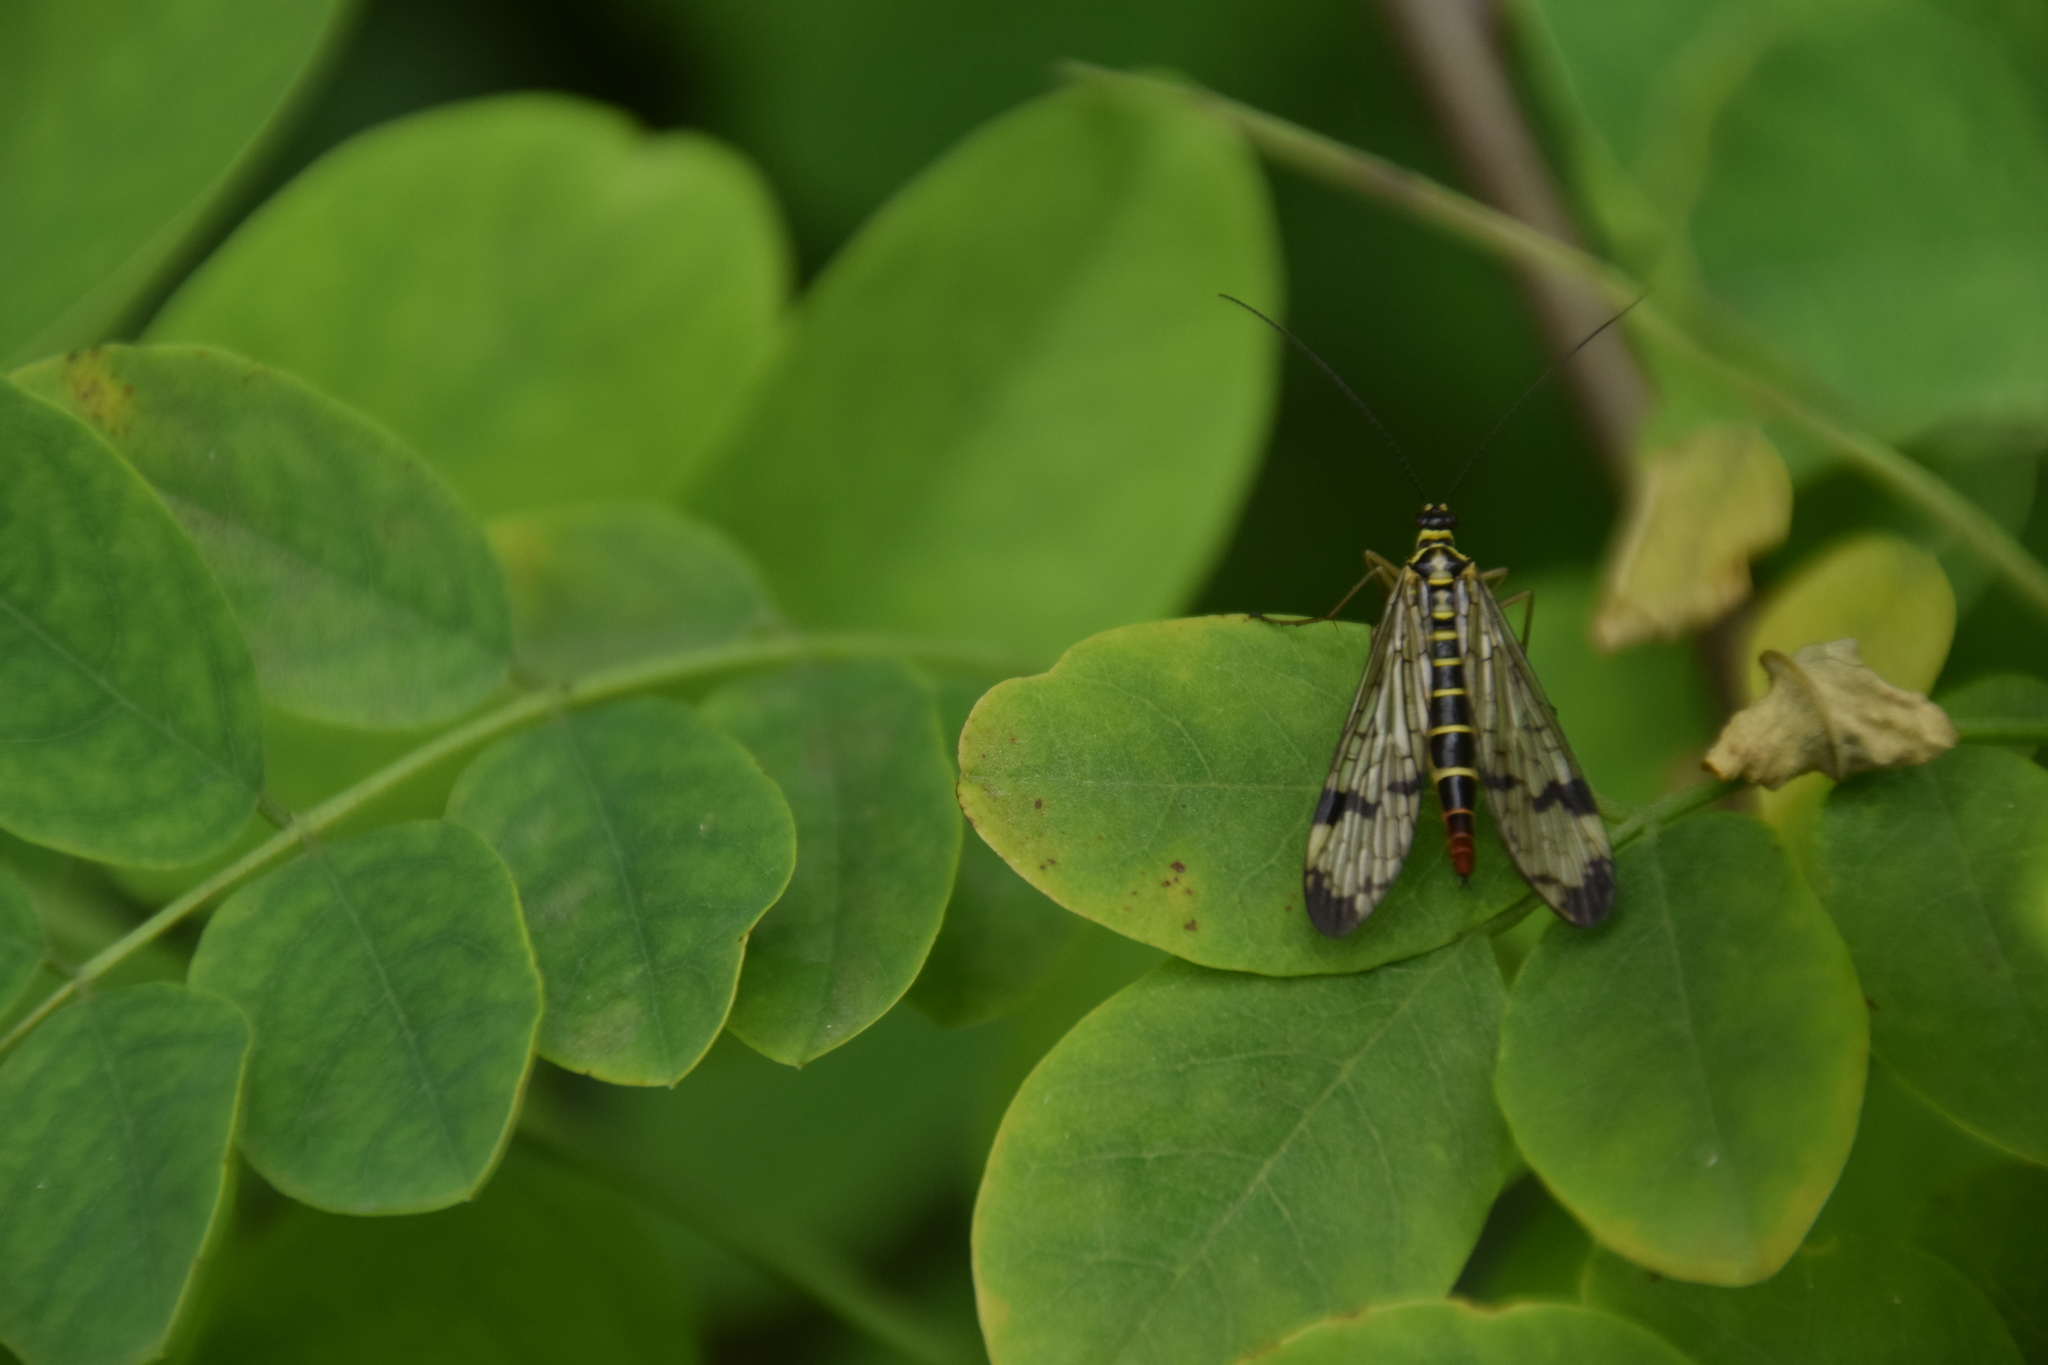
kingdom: Animalia
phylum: Arthropoda
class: Insecta
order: Mecoptera
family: Panorpidae
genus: Panorpa
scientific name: Panorpa communis
